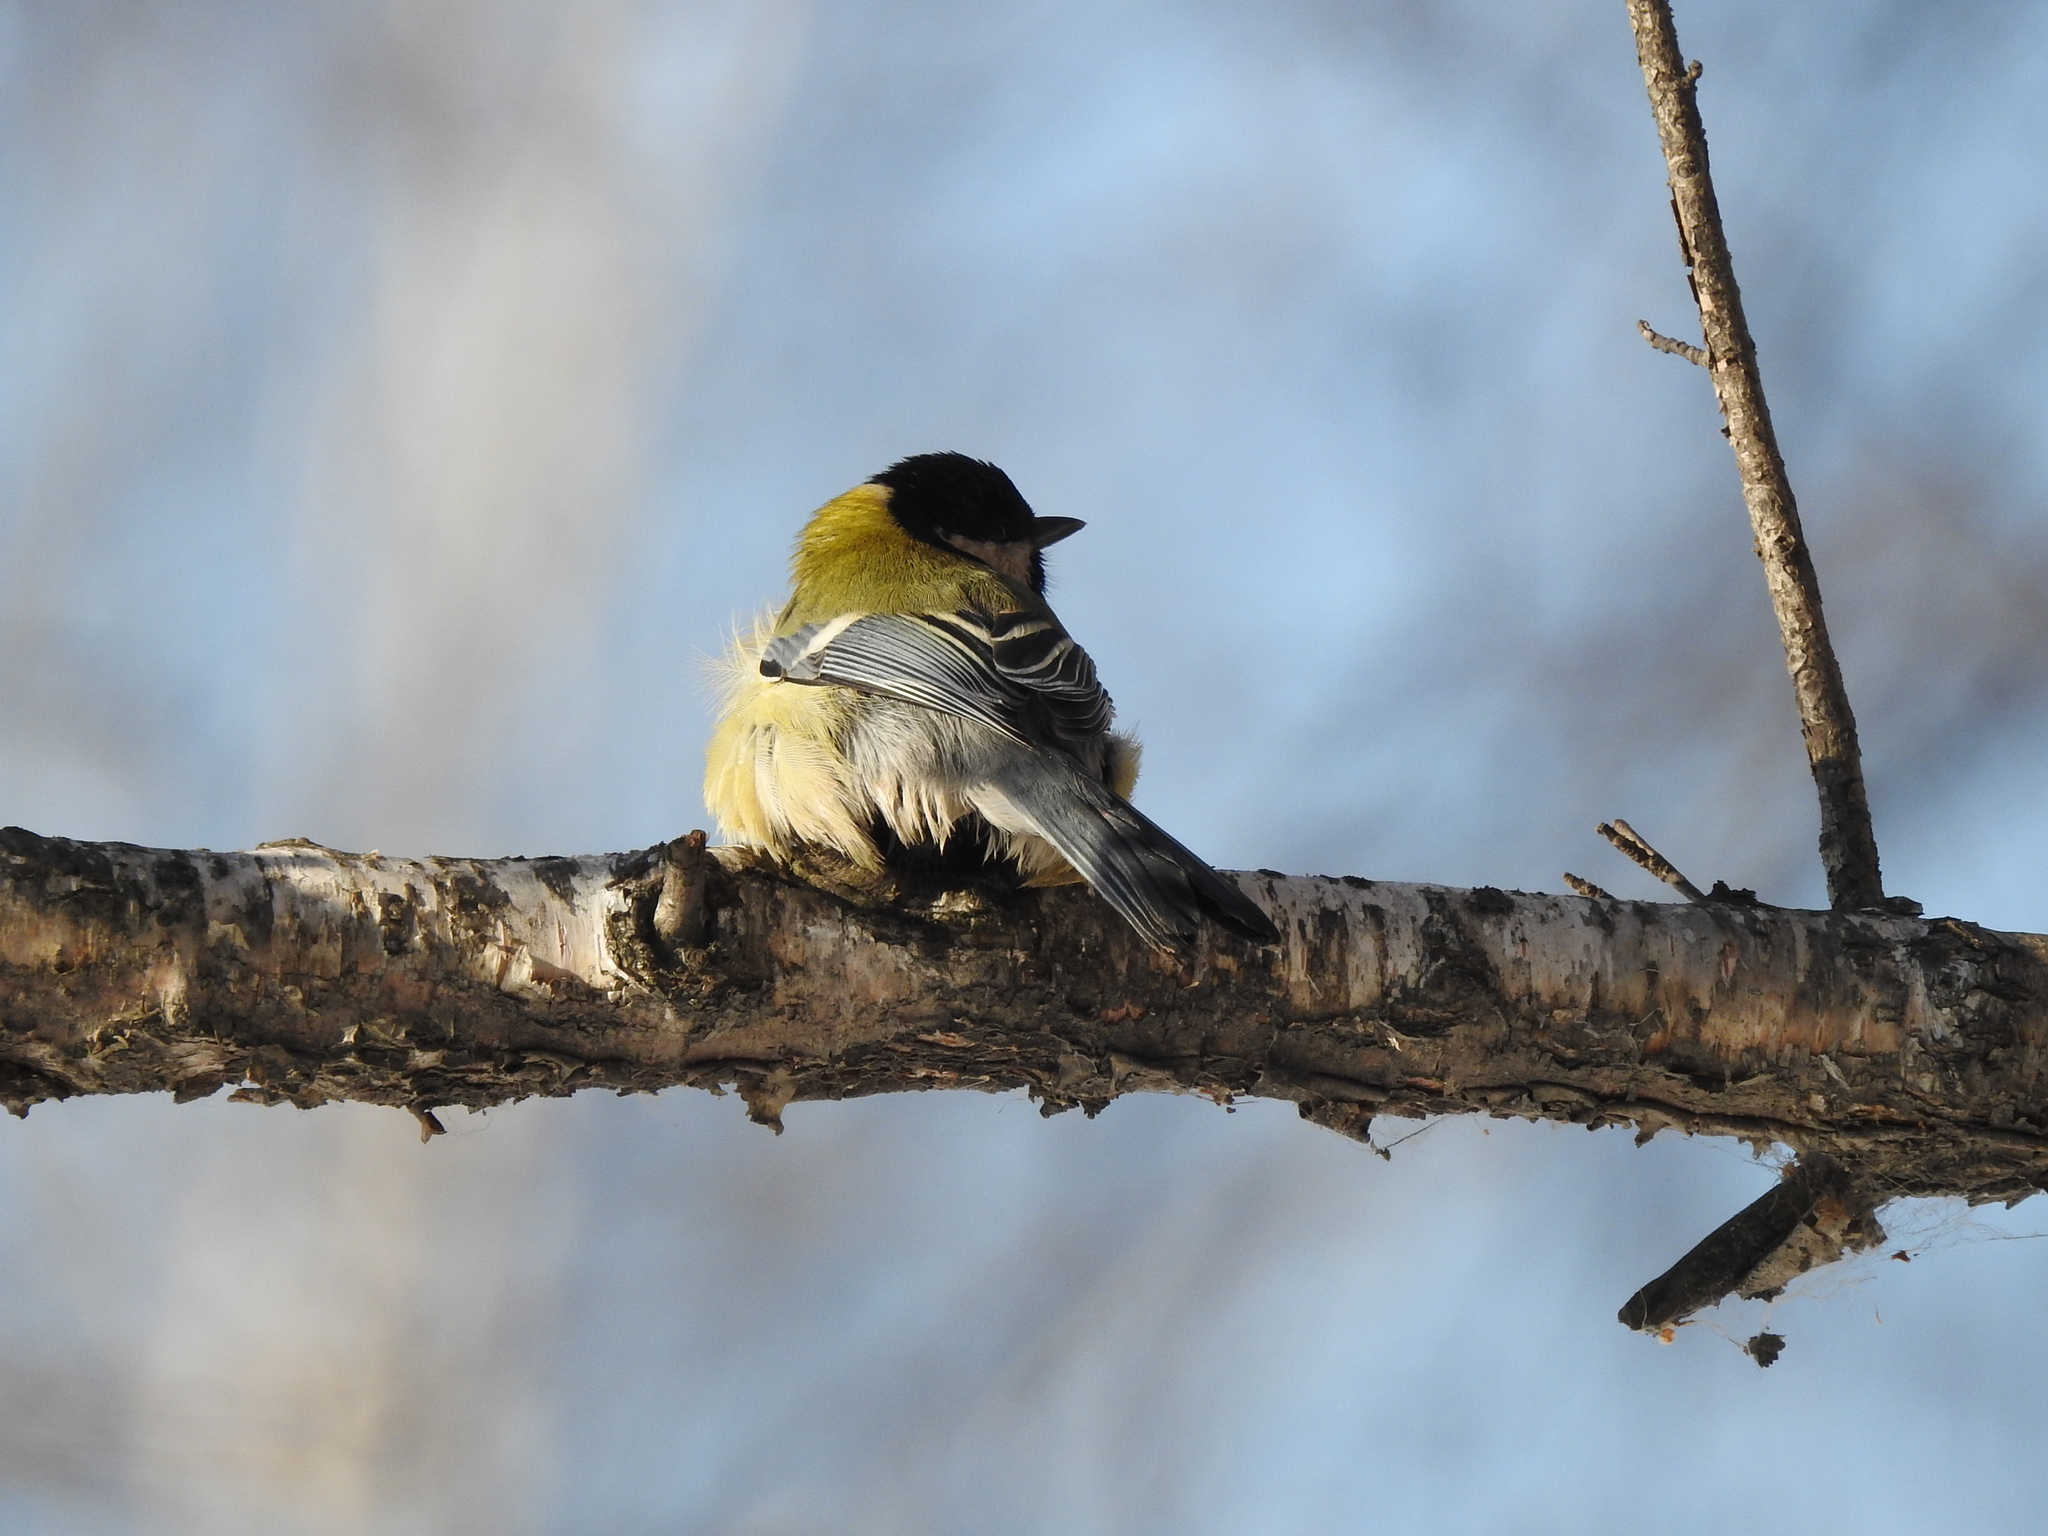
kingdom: Animalia
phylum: Chordata
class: Aves
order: Passeriformes
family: Paridae
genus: Parus
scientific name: Parus major
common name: Great tit
